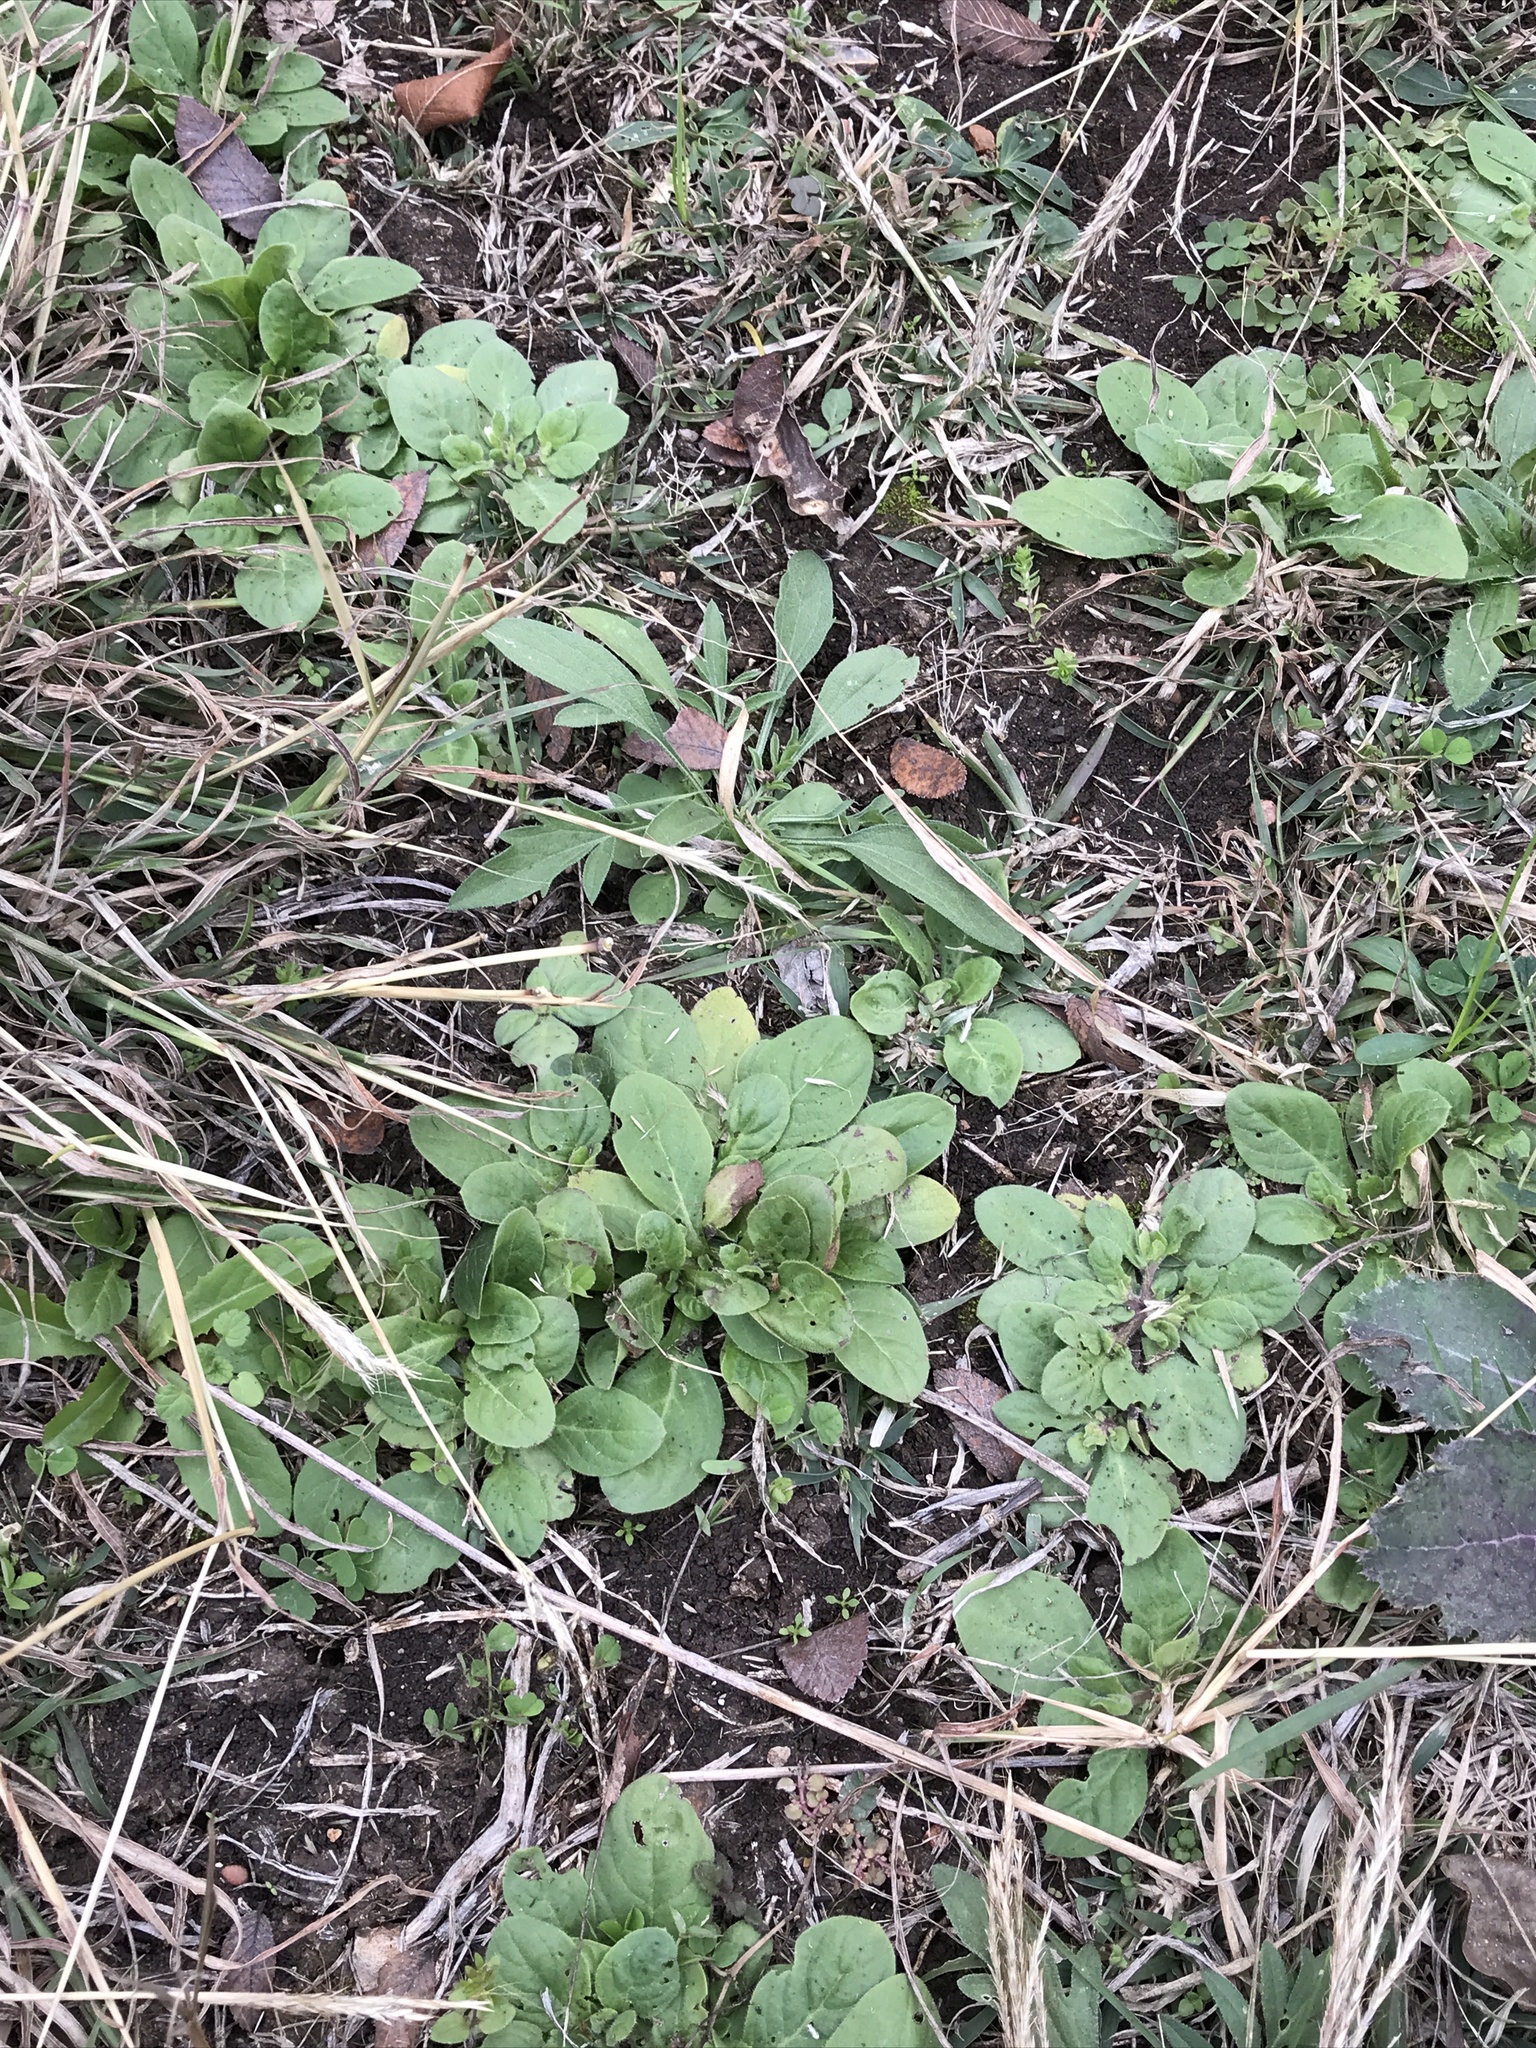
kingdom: Plantae
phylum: Tracheophyta
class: Magnoliopsida
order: Boraginales
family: Namaceae
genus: Nama
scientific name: Nama jamaicensis
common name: Jamaicanweed
